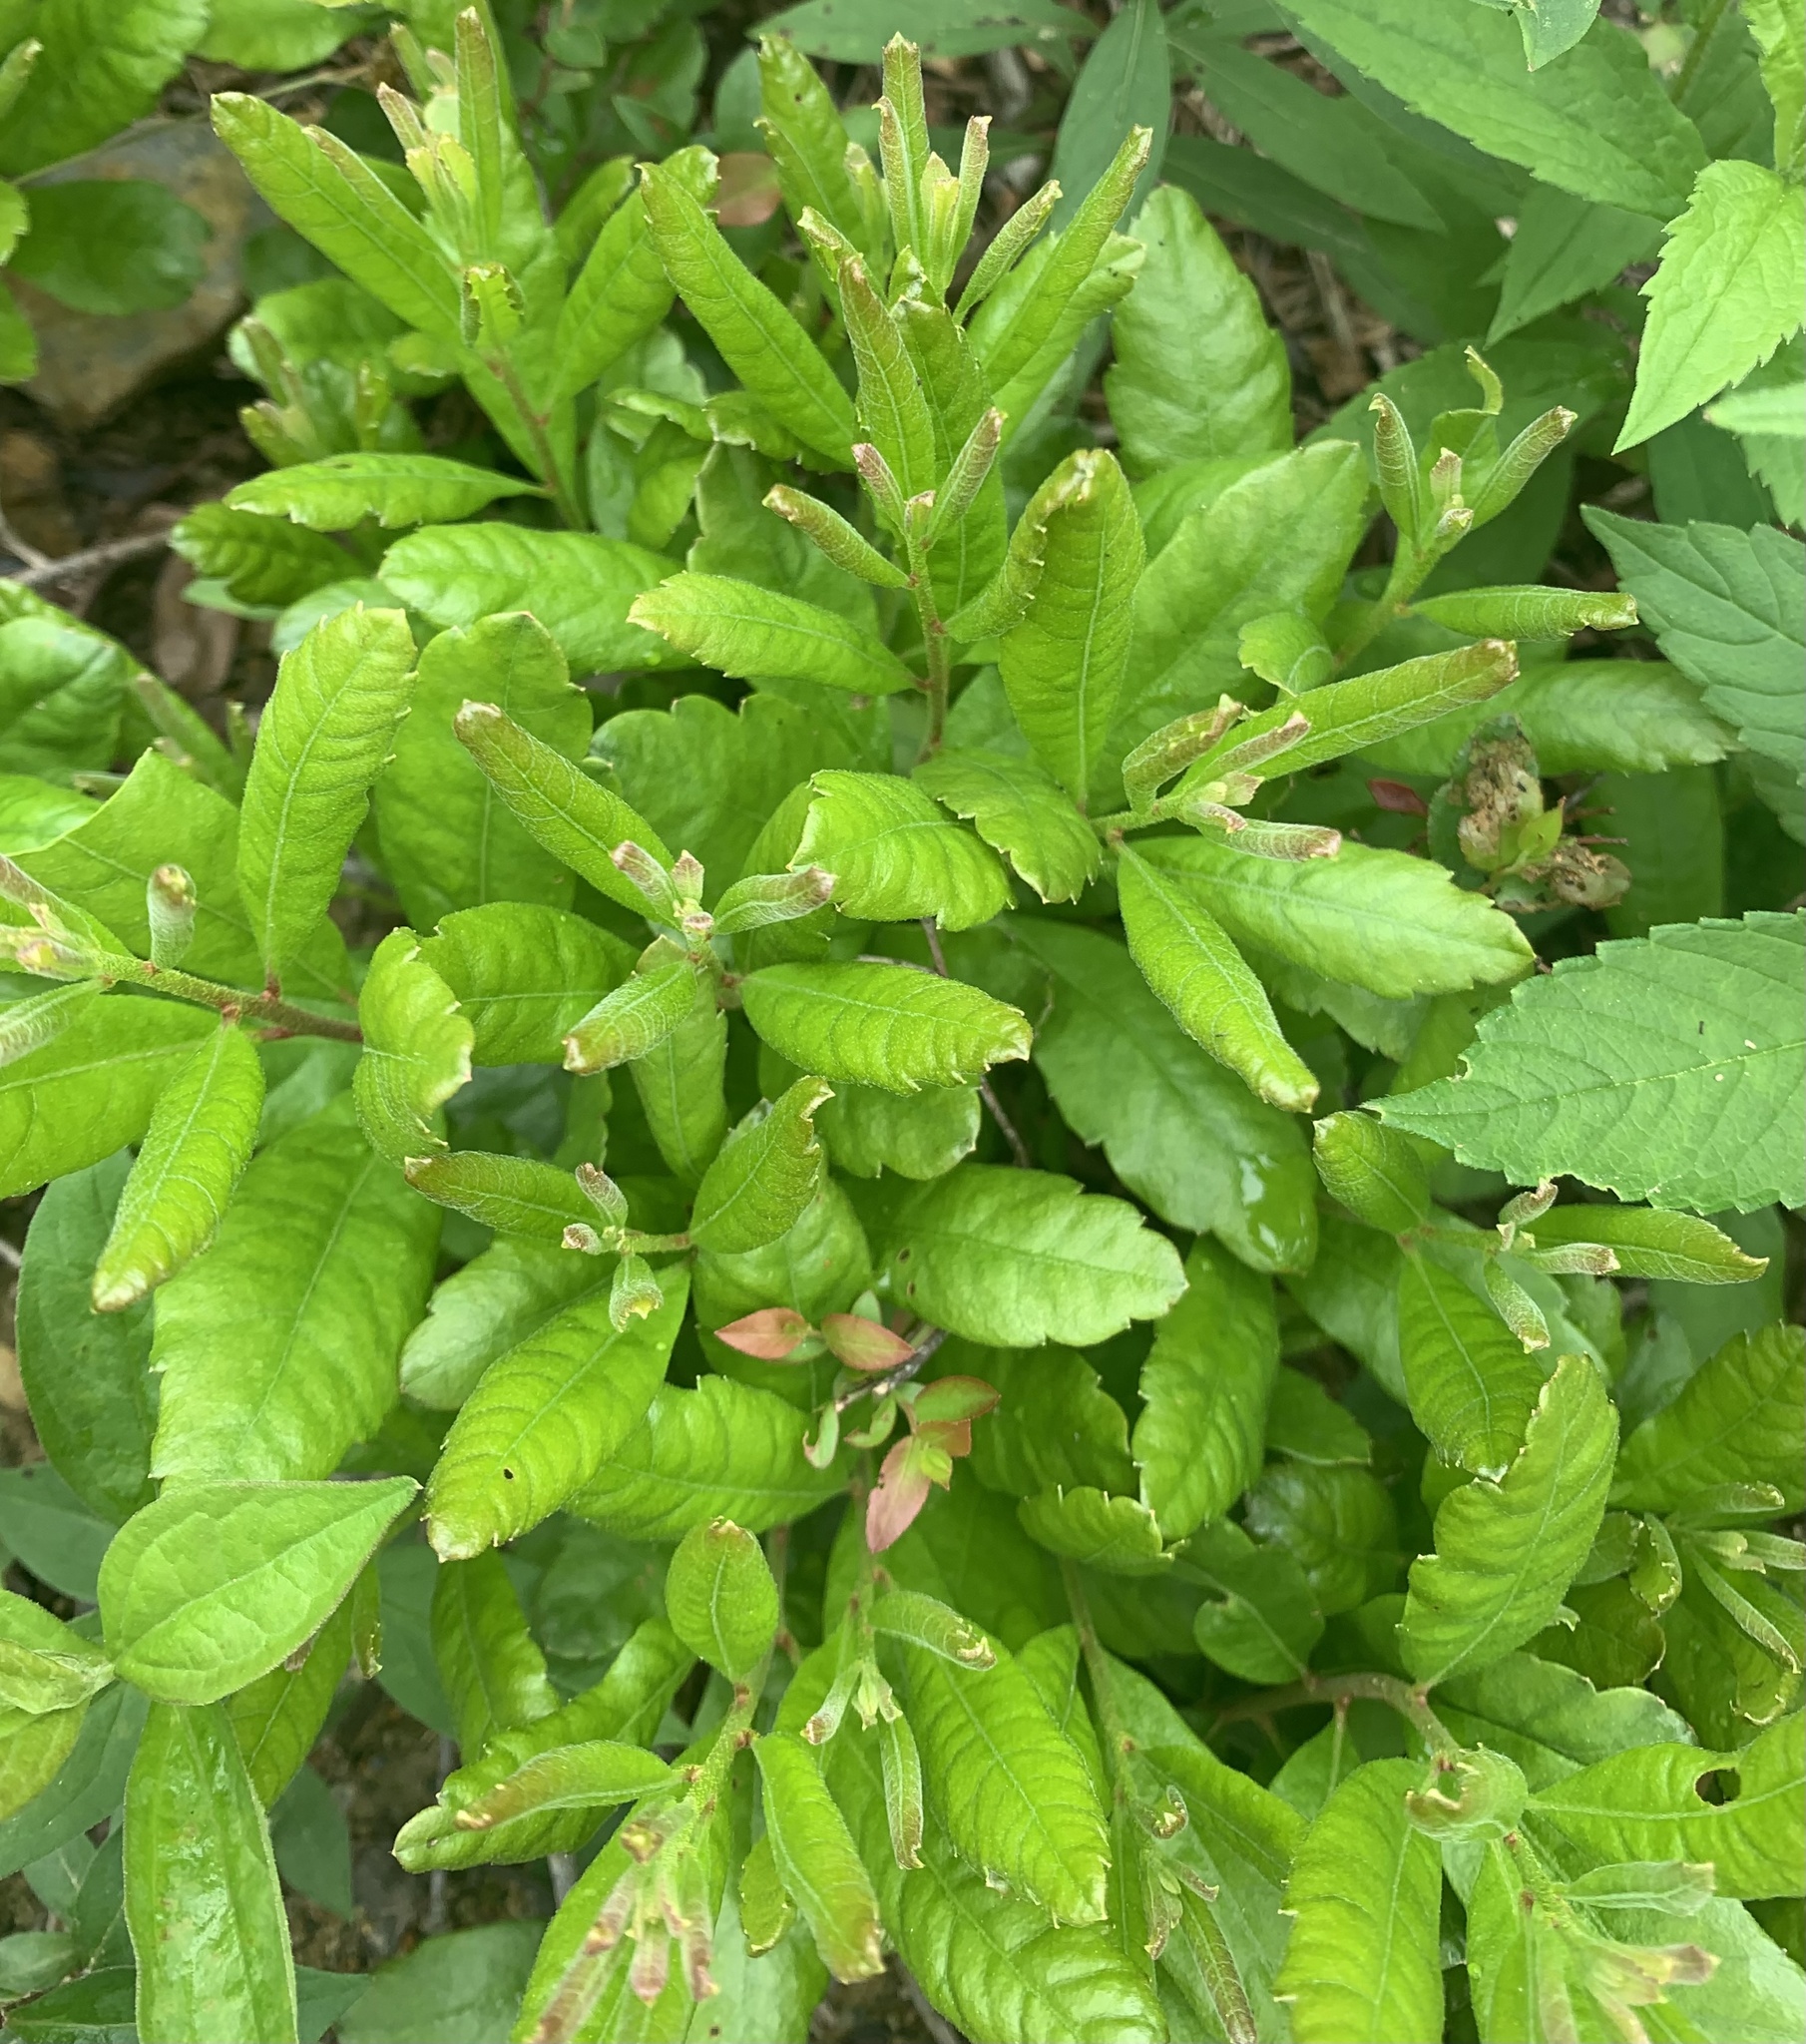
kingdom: Plantae
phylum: Tracheophyta
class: Magnoliopsida
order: Fagales
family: Myricaceae
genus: Morella
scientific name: Morella pensylvanica
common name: Northern bayberry
